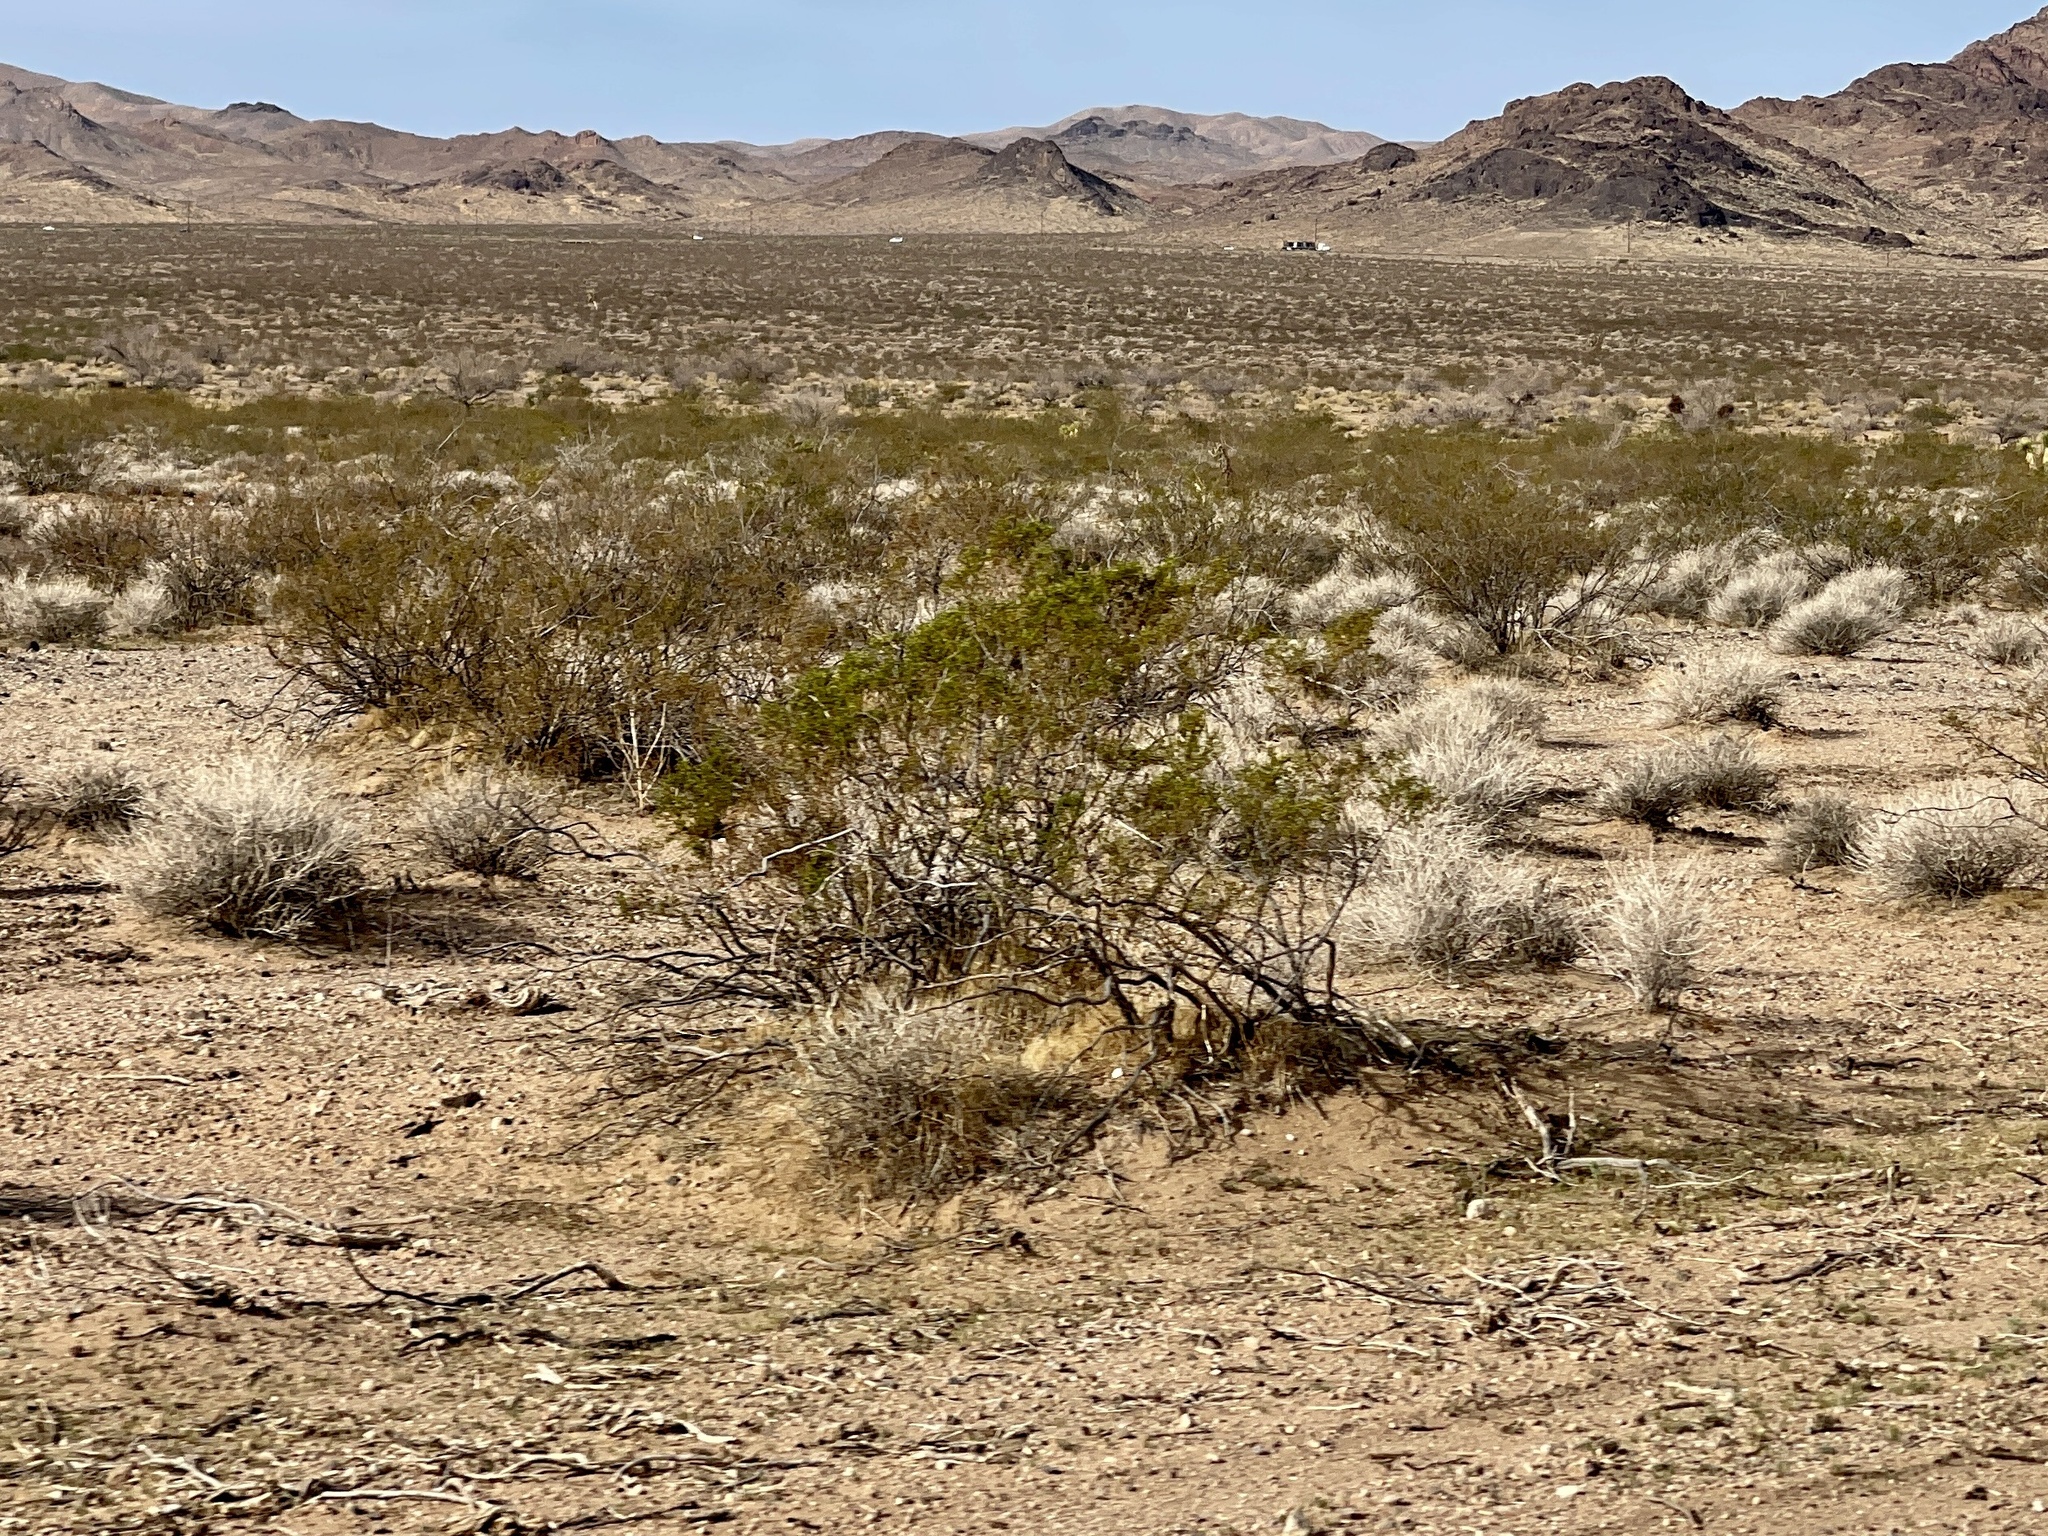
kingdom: Plantae
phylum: Tracheophyta
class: Magnoliopsida
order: Zygophyllales
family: Zygophyllaceae
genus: Larrea
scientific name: Larrea tridentata
